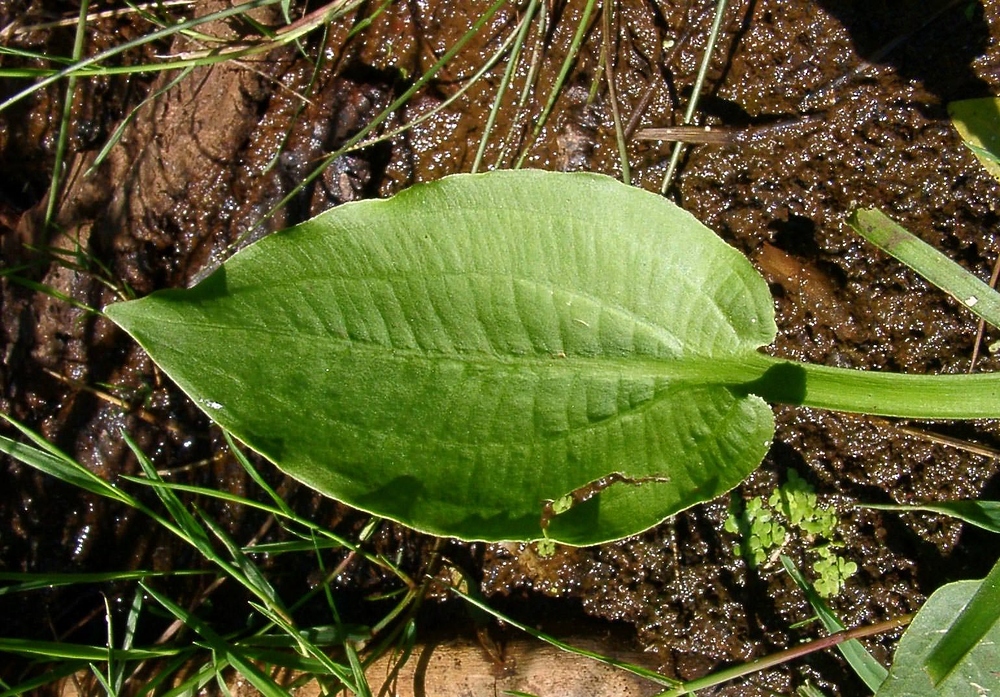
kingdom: Plantae
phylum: Tracheophyta
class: Liliopsida
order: Alismatales
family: Alismataceae
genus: Alisma
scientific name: Alisma plantago-aquatica
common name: Water-plantain
